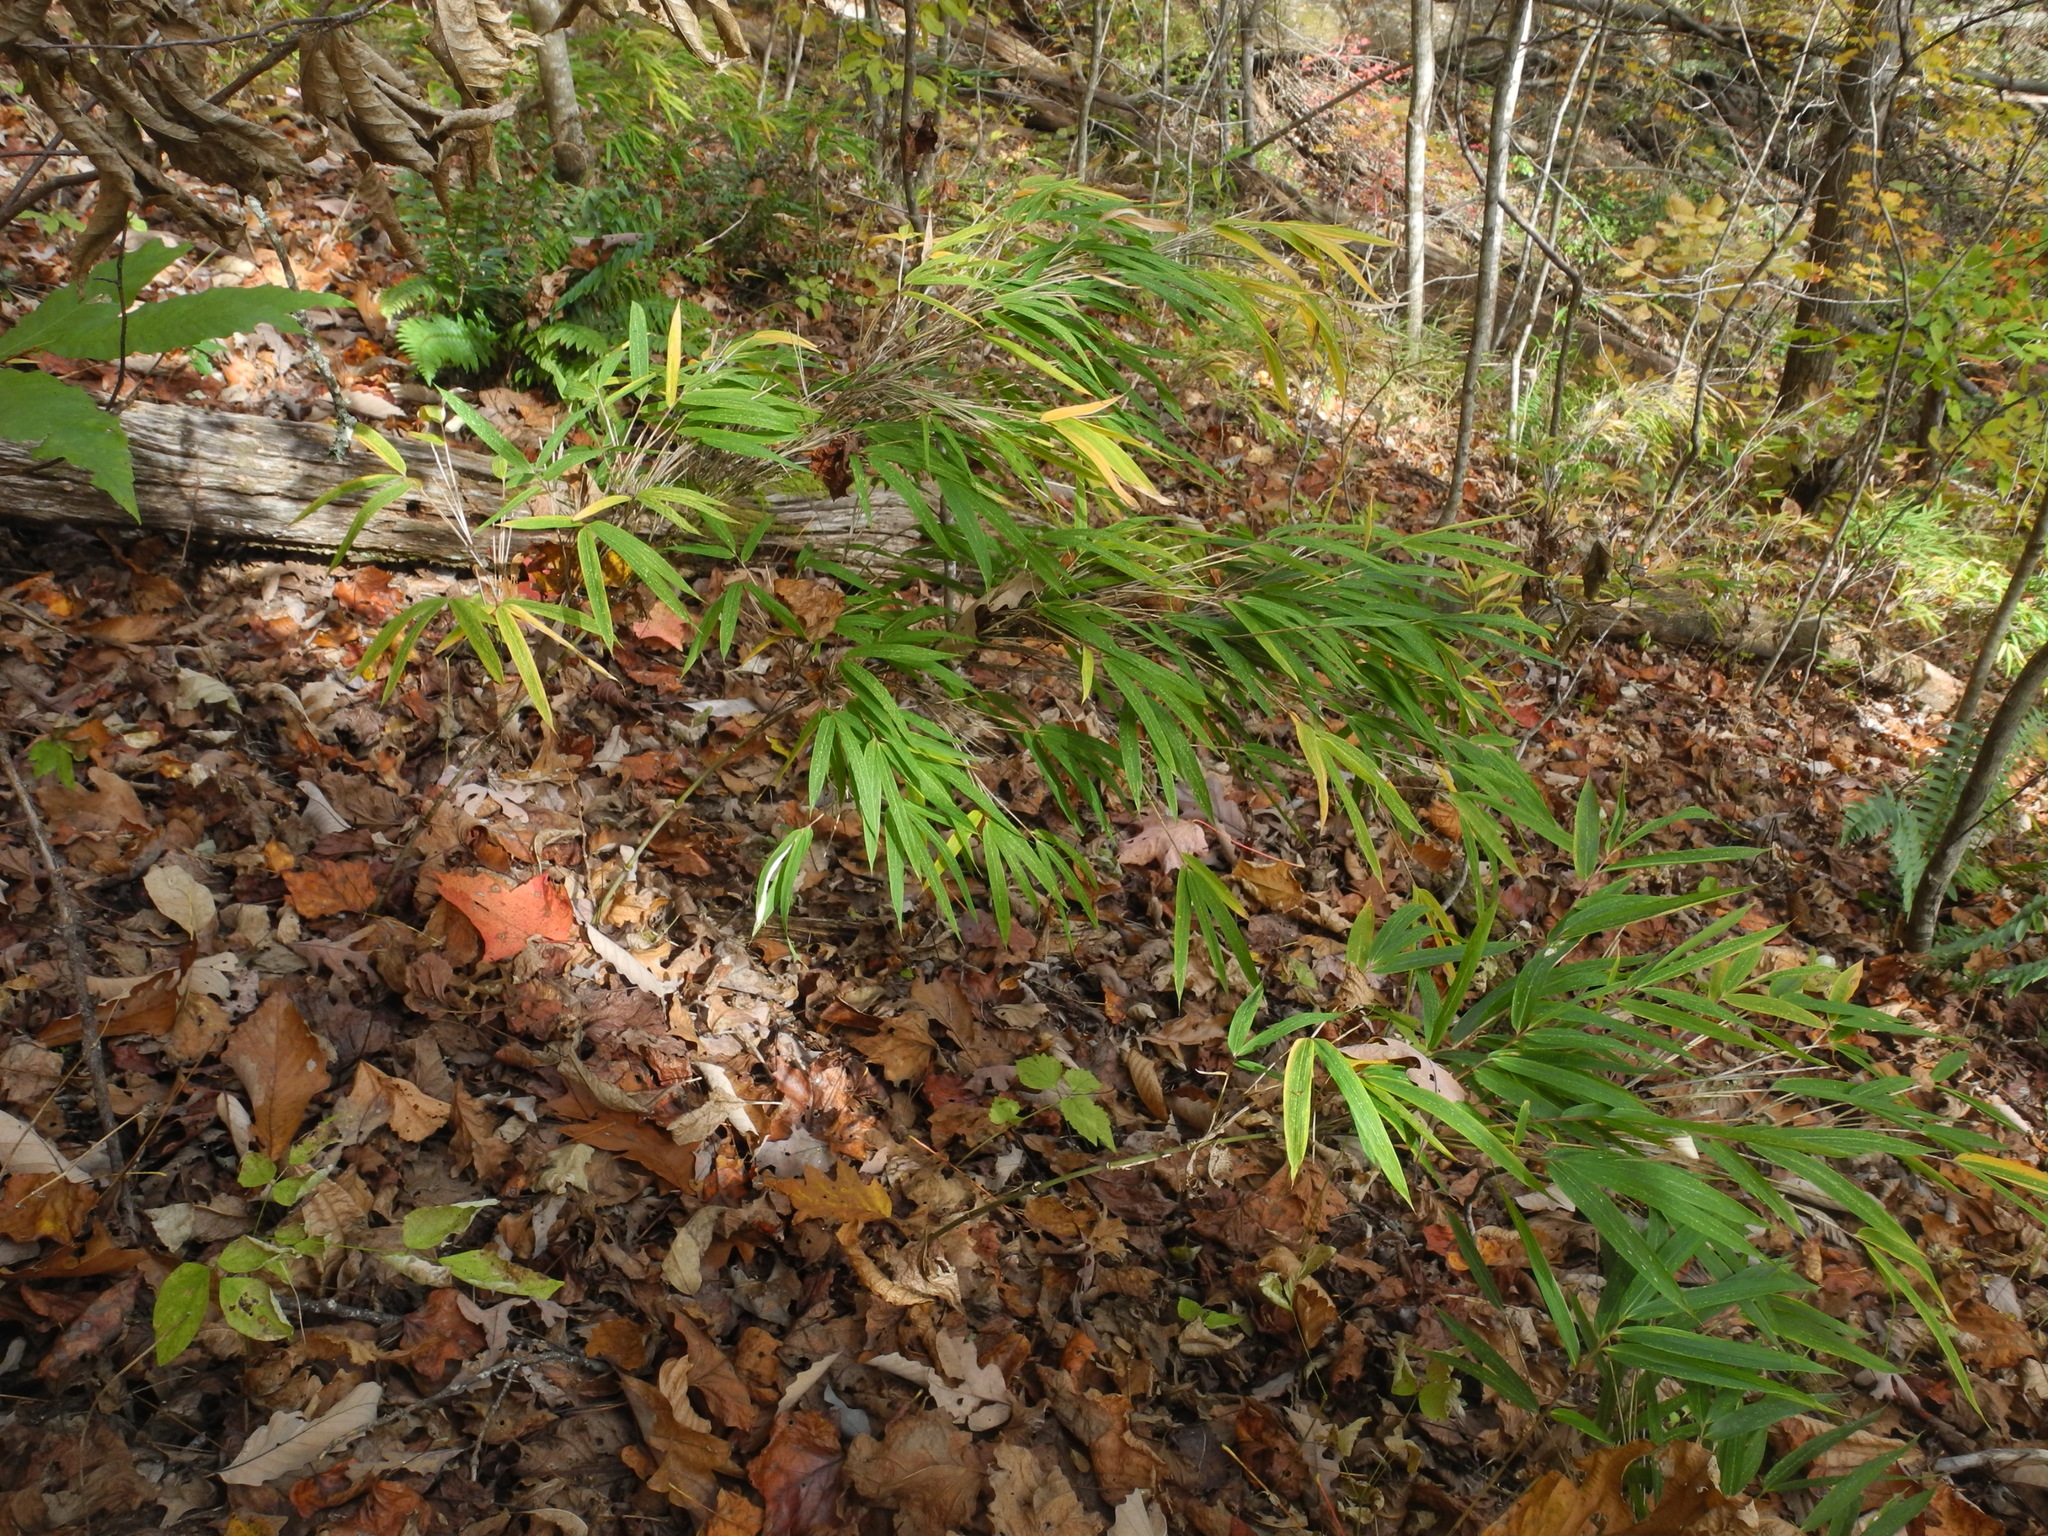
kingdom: Plantae
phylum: Tracheophyta
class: Liliopsida
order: Poales
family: Poaceae
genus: Arundinaria
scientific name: Arundinaria appalachiana
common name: Hill cane
